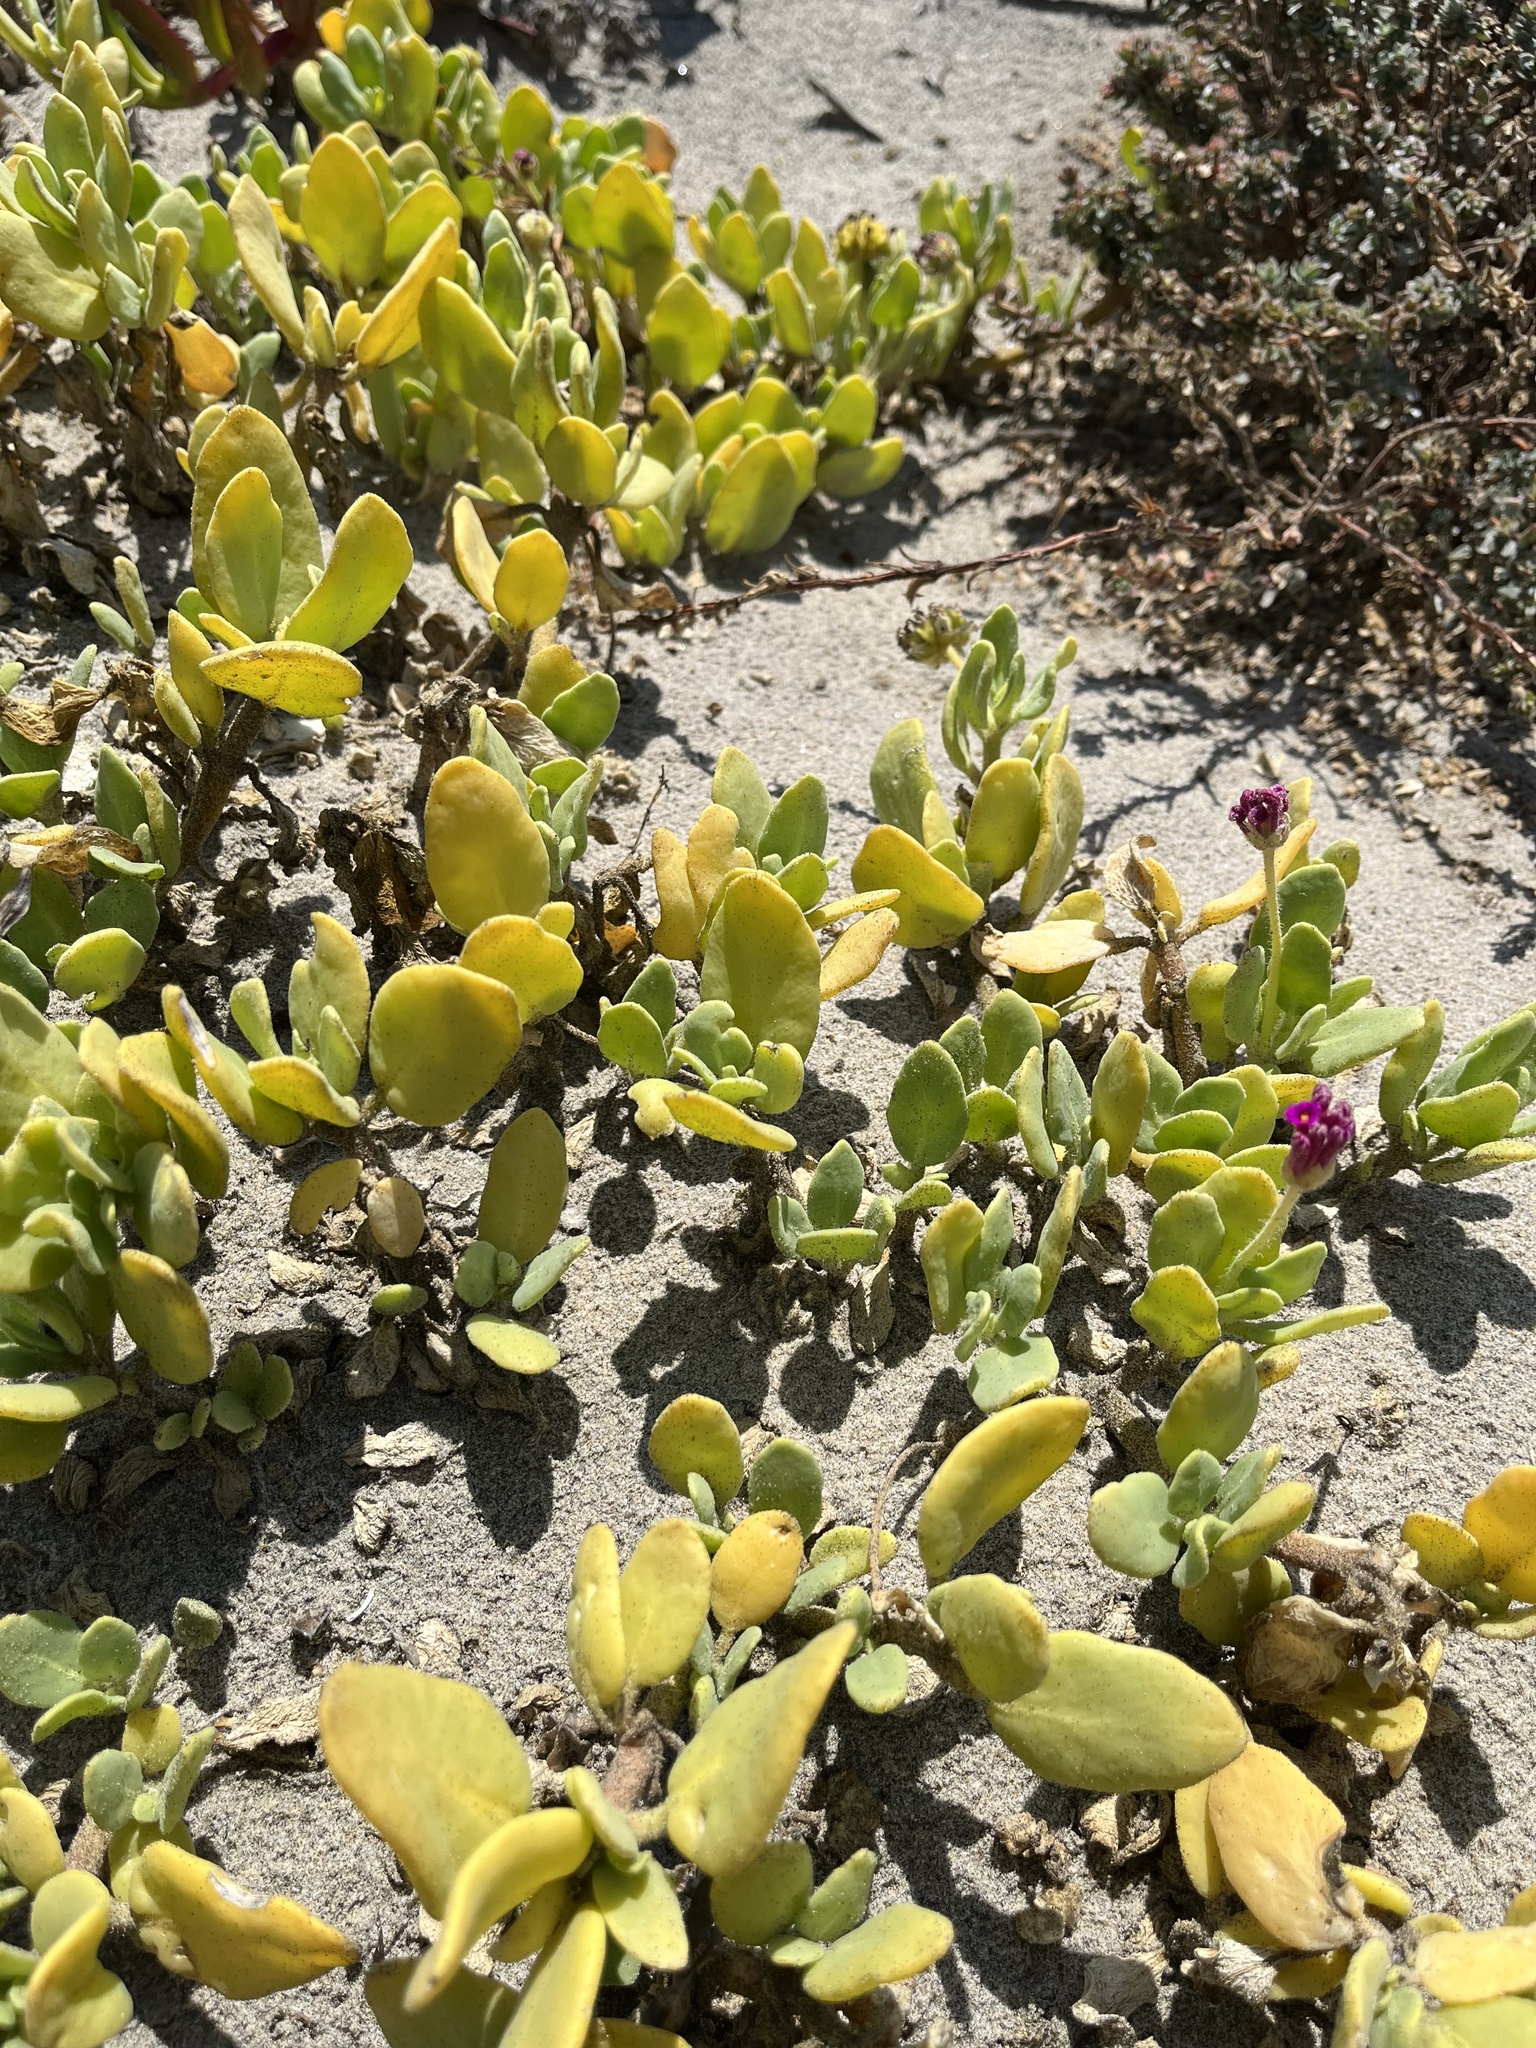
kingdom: Plantae
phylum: Tracheophyta
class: Magnoliopsida
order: Caryophyllales
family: Nyctaginaceae
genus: Abronia
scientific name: Abronia maritima
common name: Red sand-verbena
